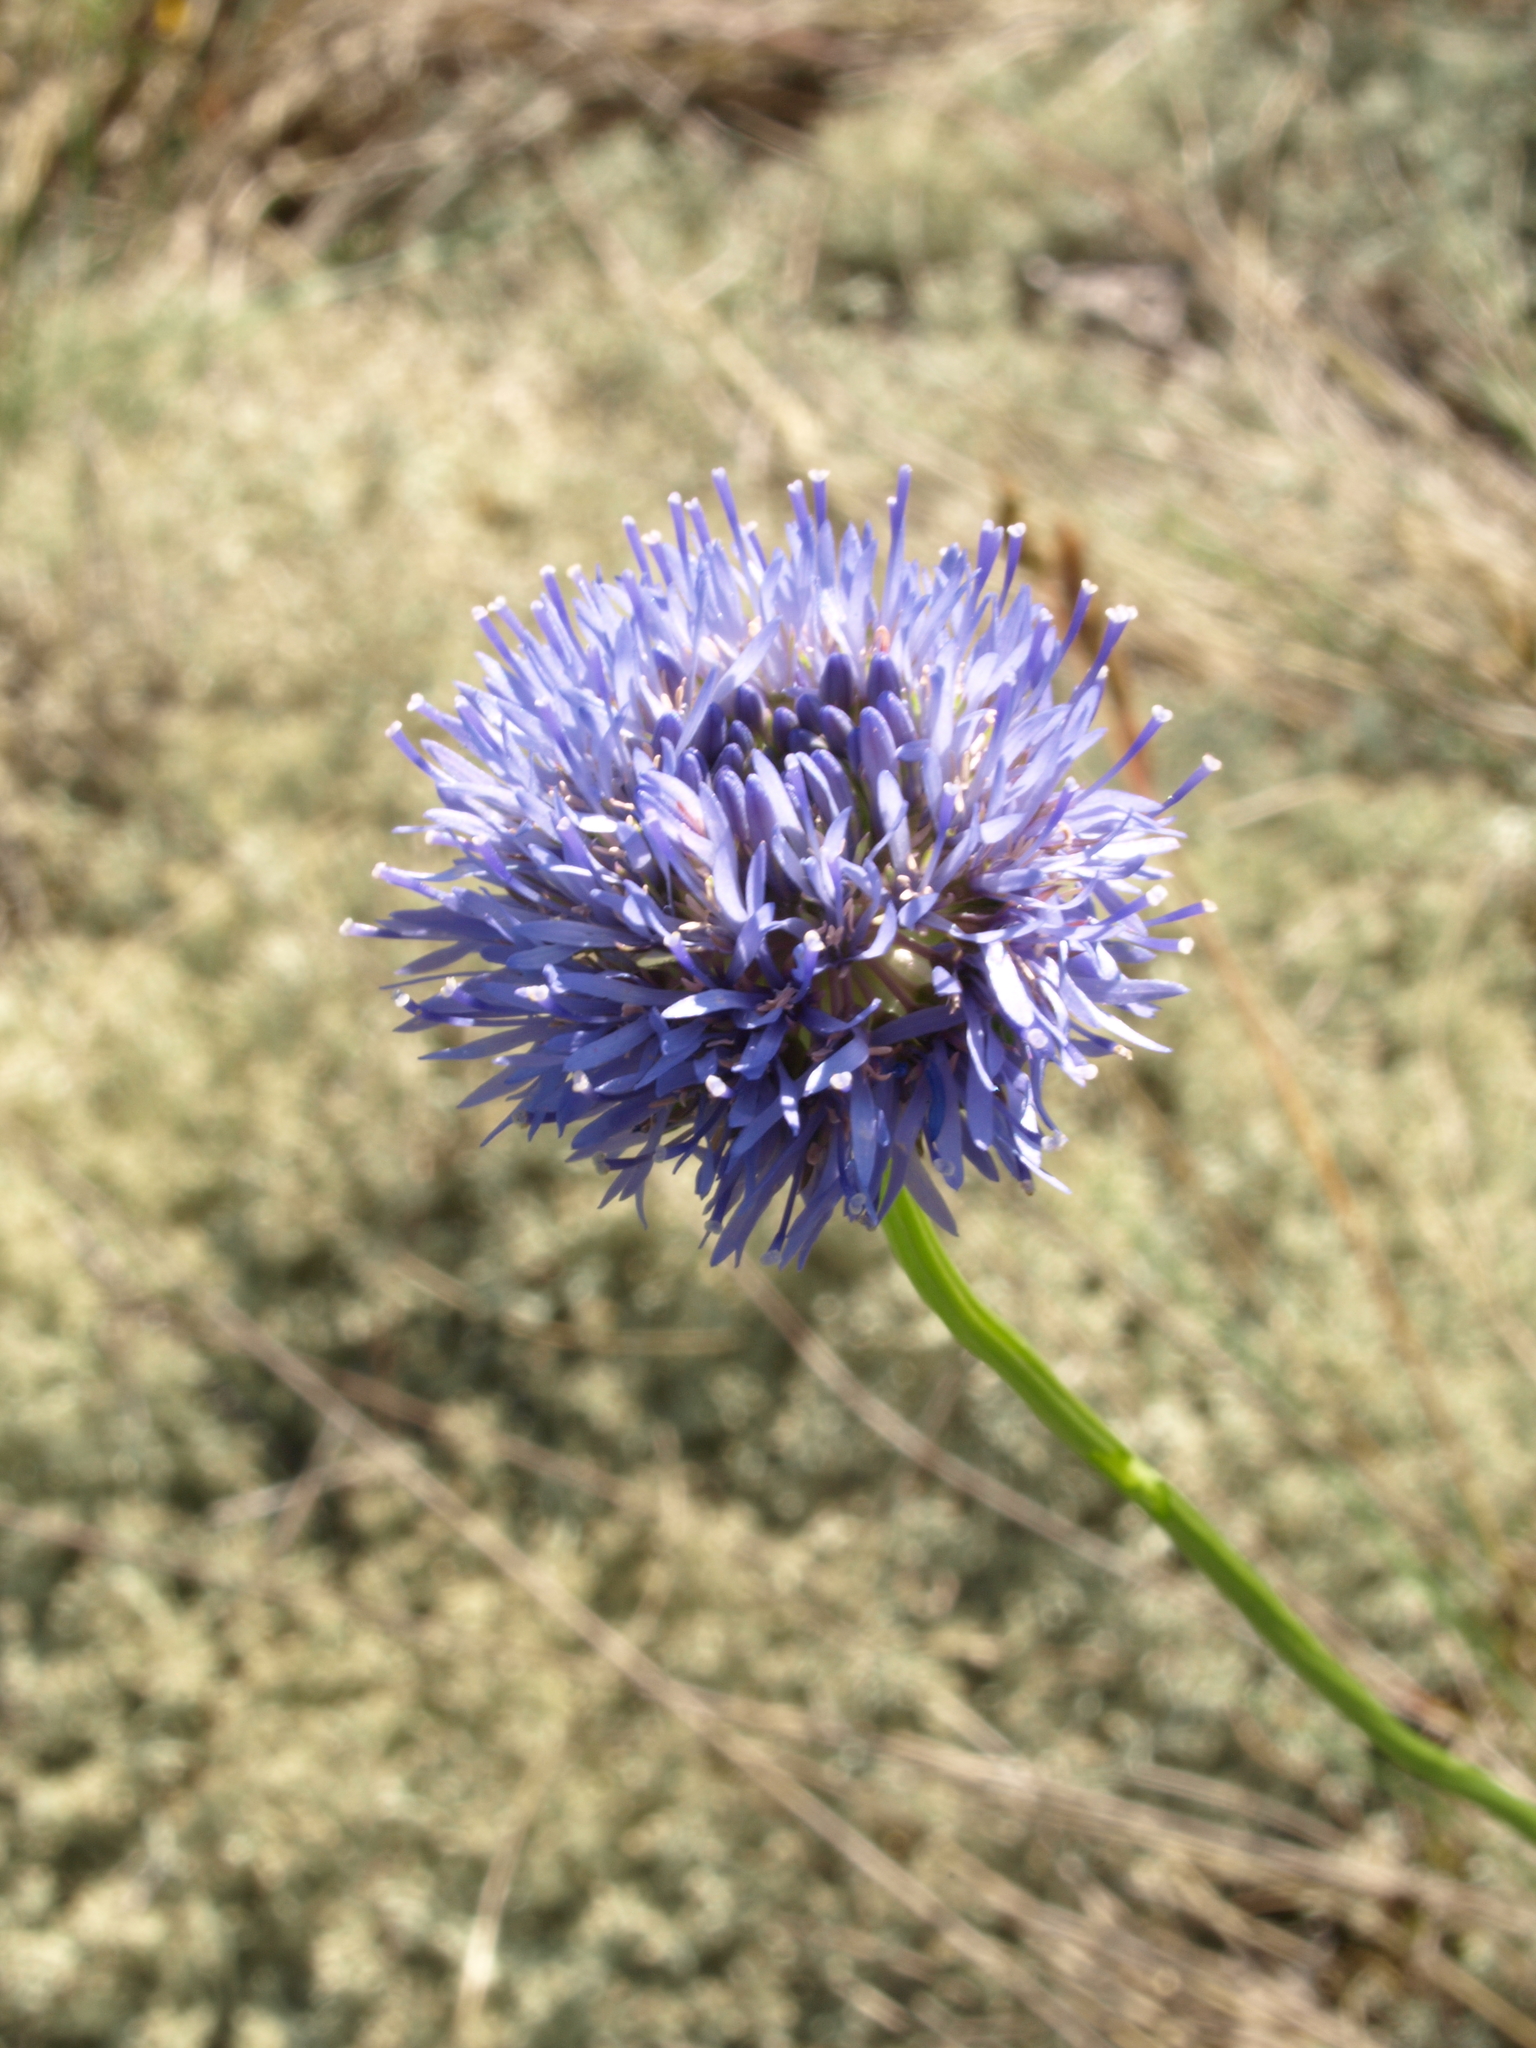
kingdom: Plantae
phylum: Tracheophyta
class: Magnoliopsida
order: Asterales
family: Campanulaceae
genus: Jasione
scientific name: Jasione montana
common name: Sheep's-bit
